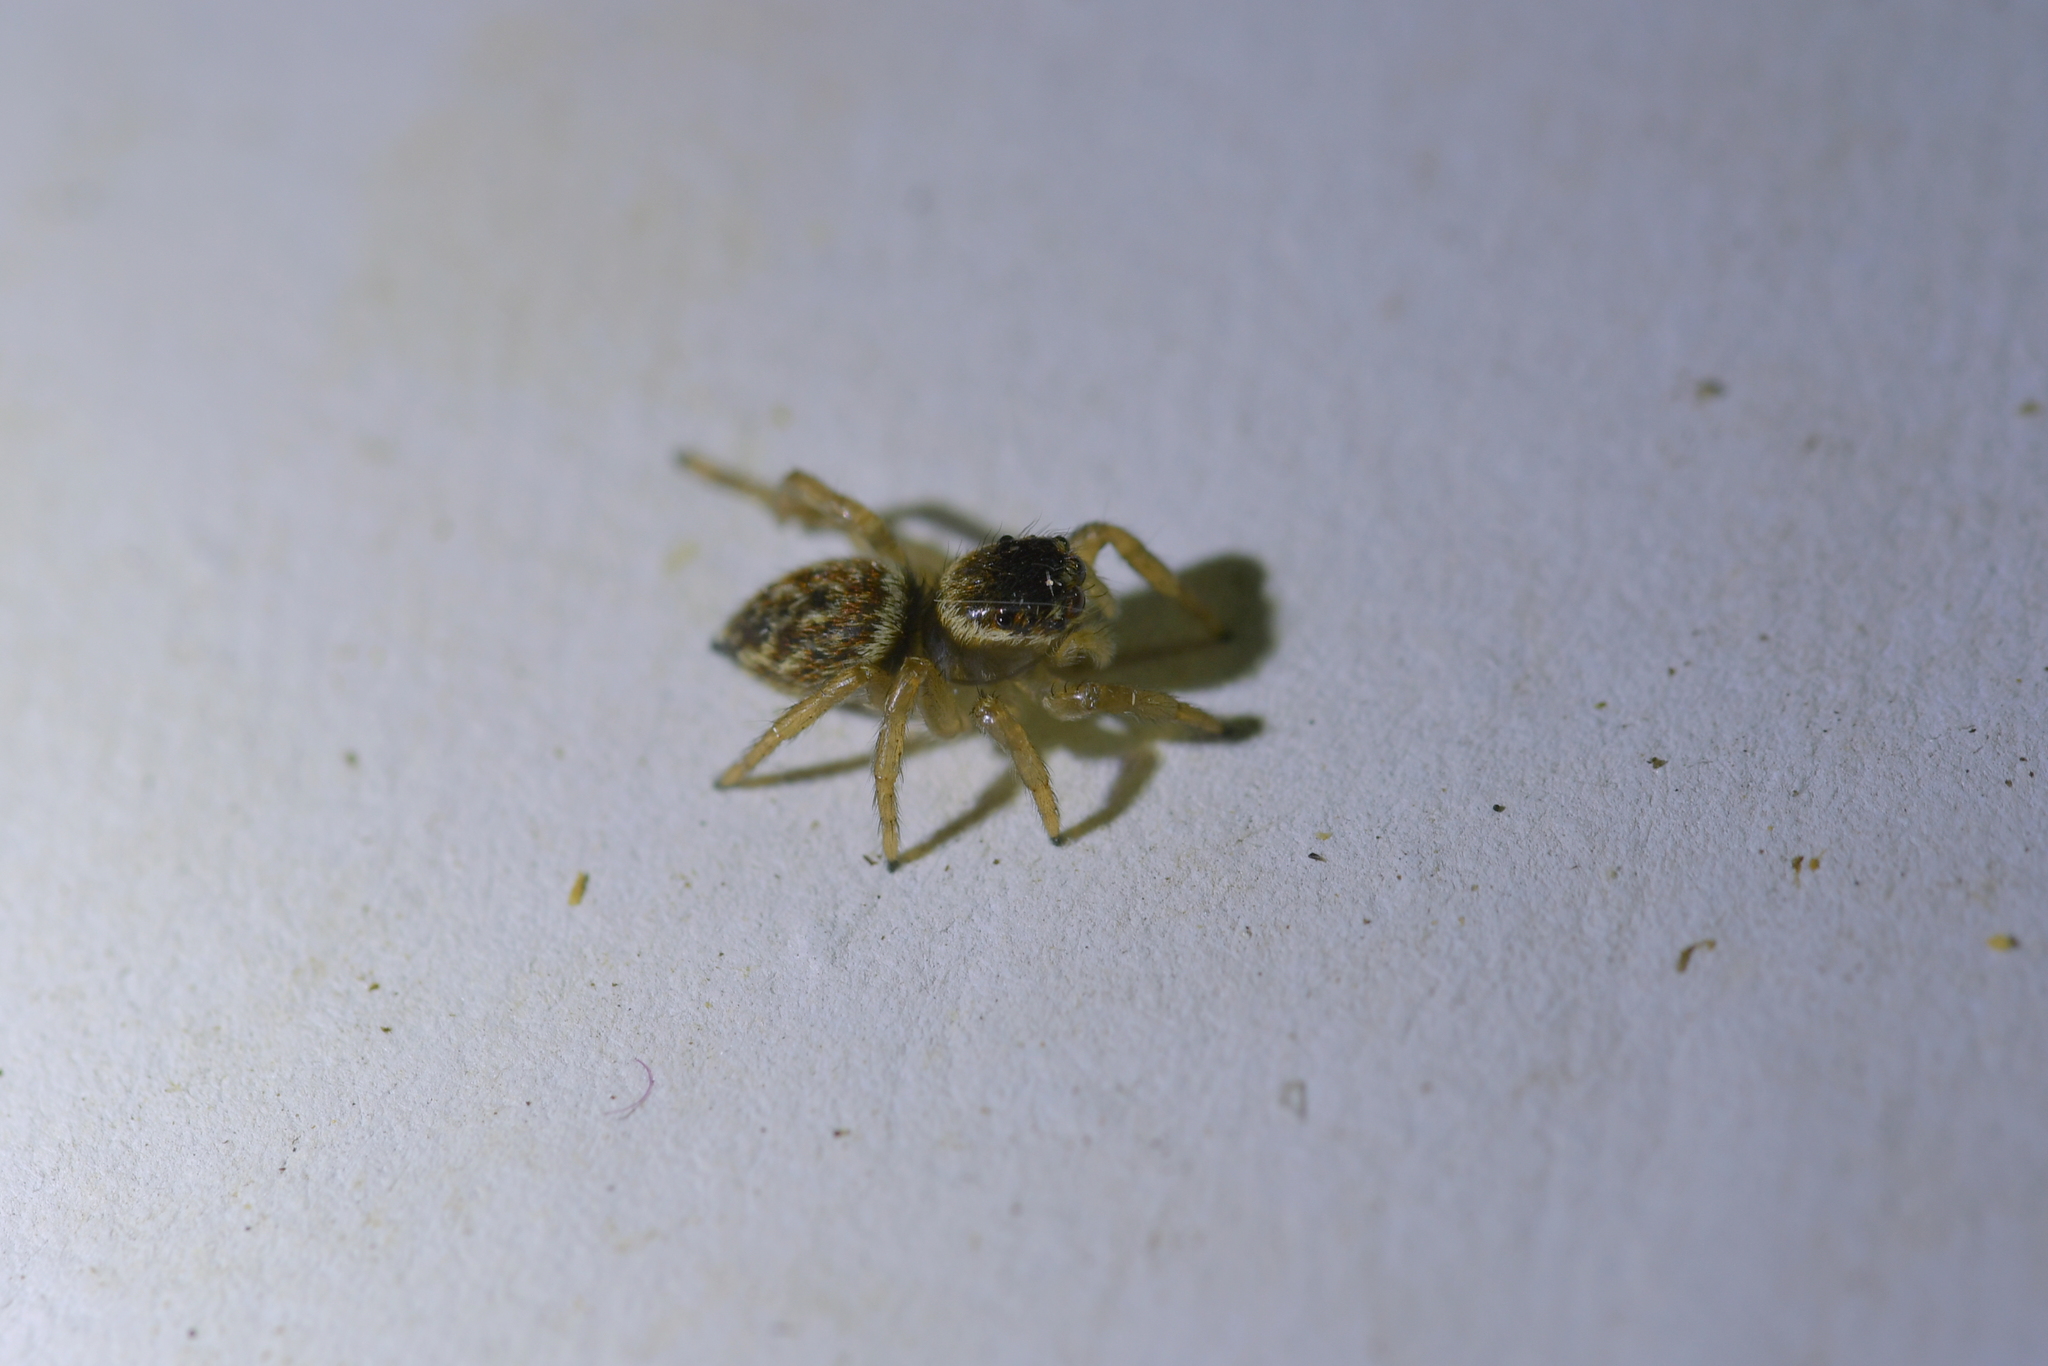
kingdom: Animalia
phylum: Arthropoda
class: Arachnida
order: Araneae
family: Salticidae
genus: Maratus
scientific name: Maratus griseus
